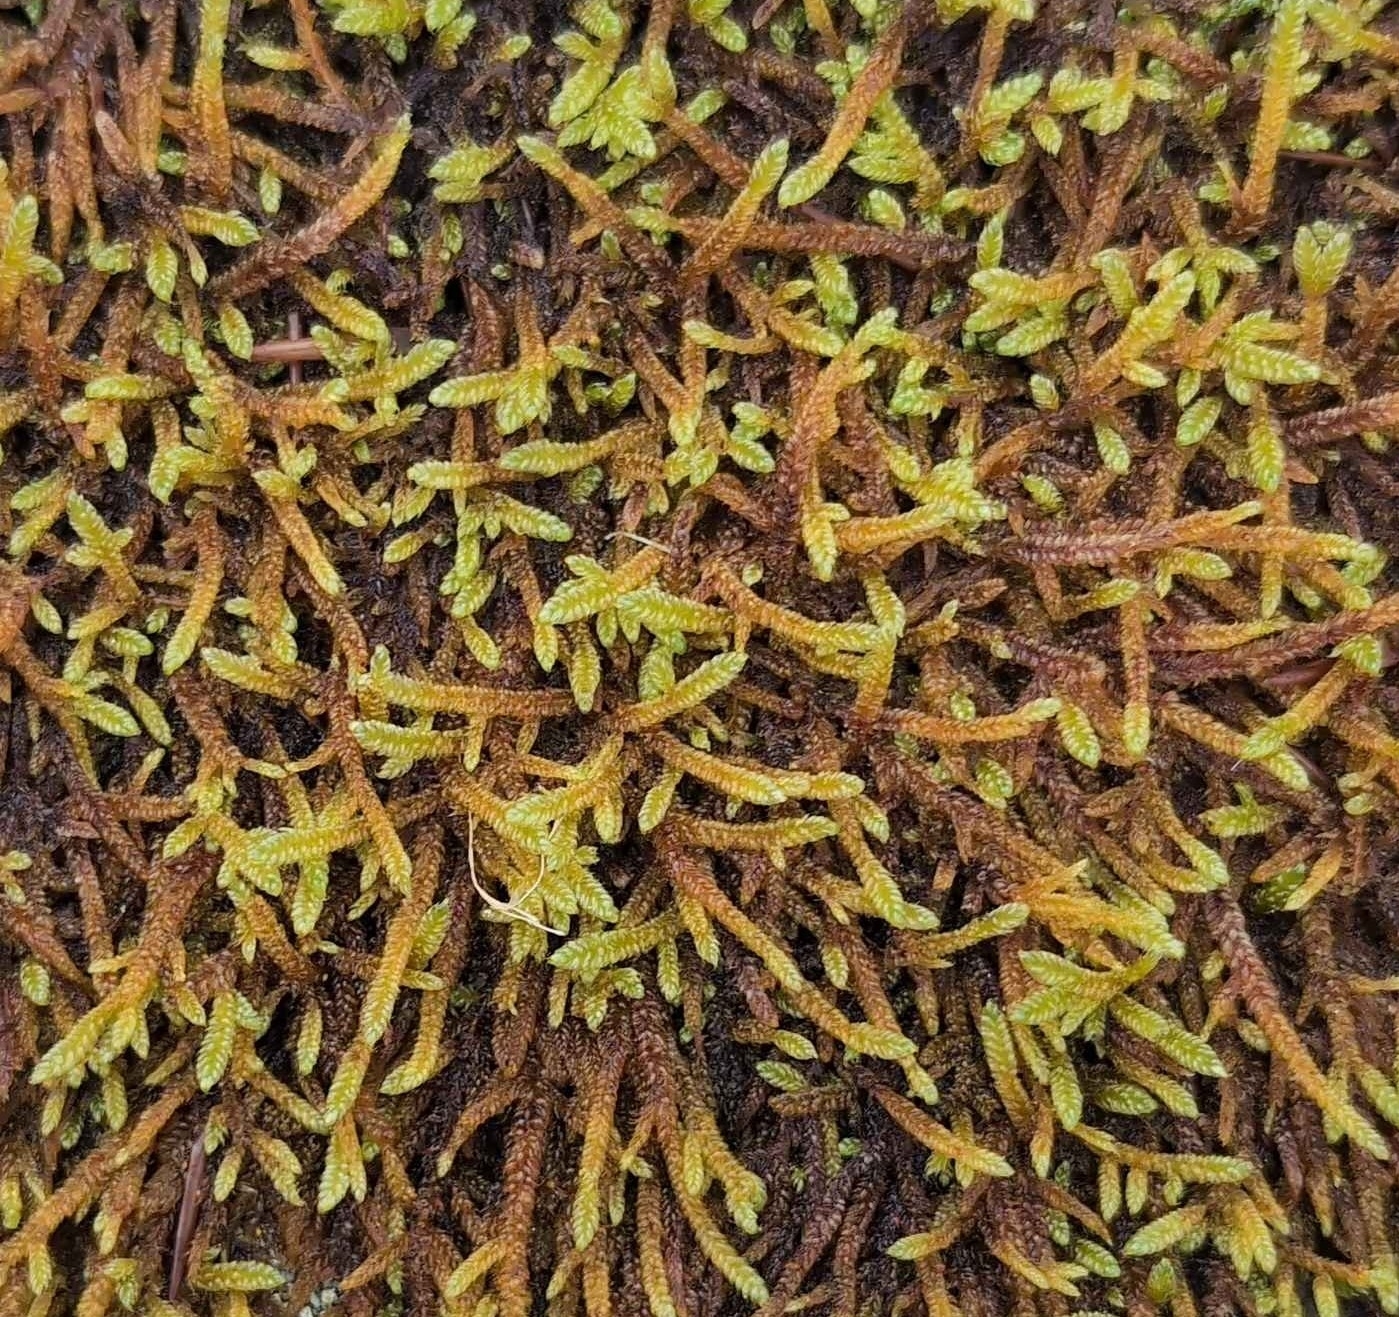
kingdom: Plantae
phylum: Bryophyta
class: Bryopsida
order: Hypnales
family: Hypnaceae
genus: Hypnum
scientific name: Hypnum cupressiforme
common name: Cypress-leaved plait-moss
